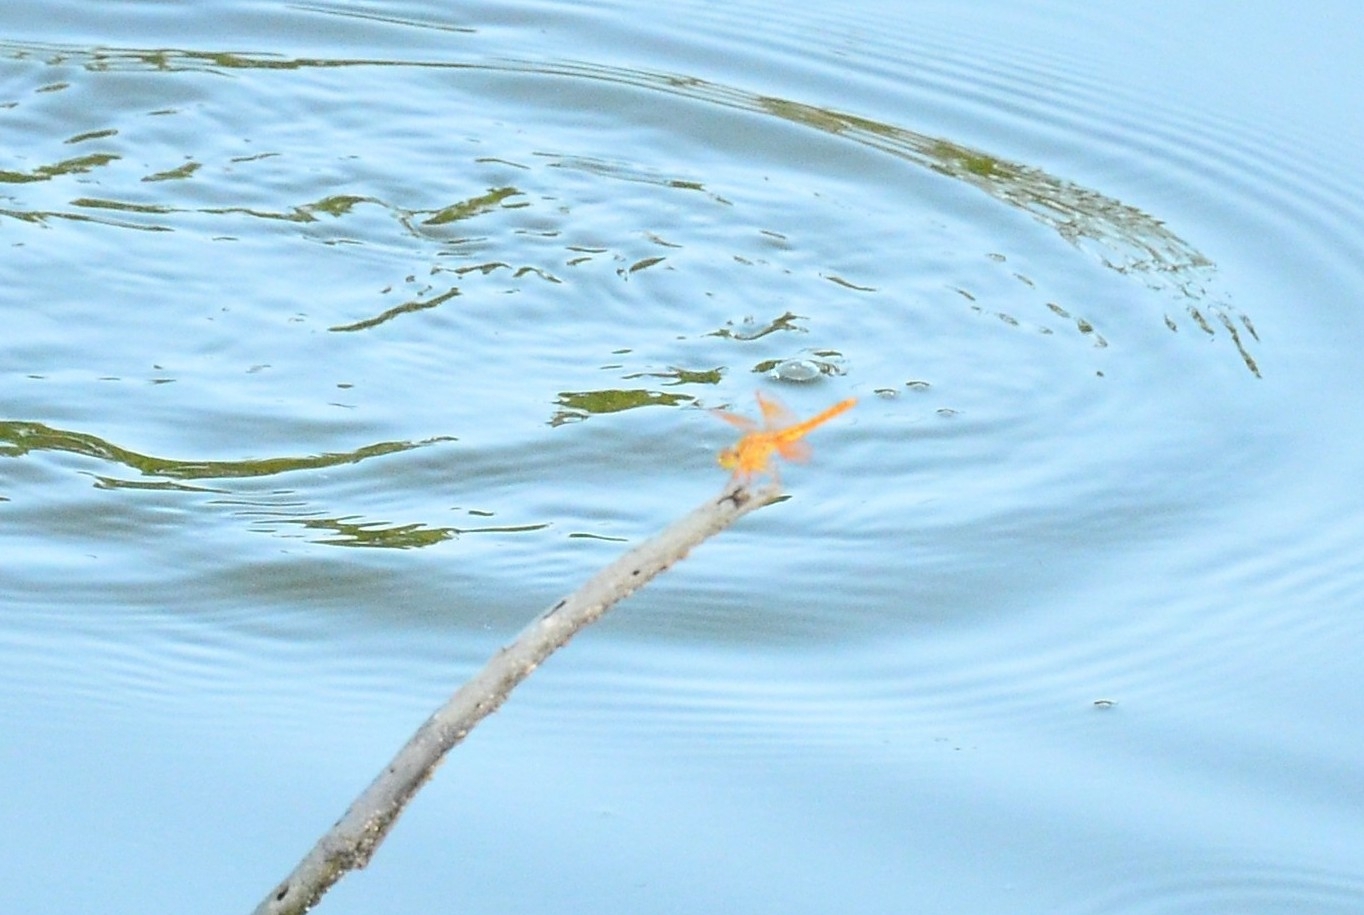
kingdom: Animalia
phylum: Arthropoda
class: Insecta
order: Odonata
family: Libellulidae
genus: Brachythemis
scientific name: Brachythemis contaminata
